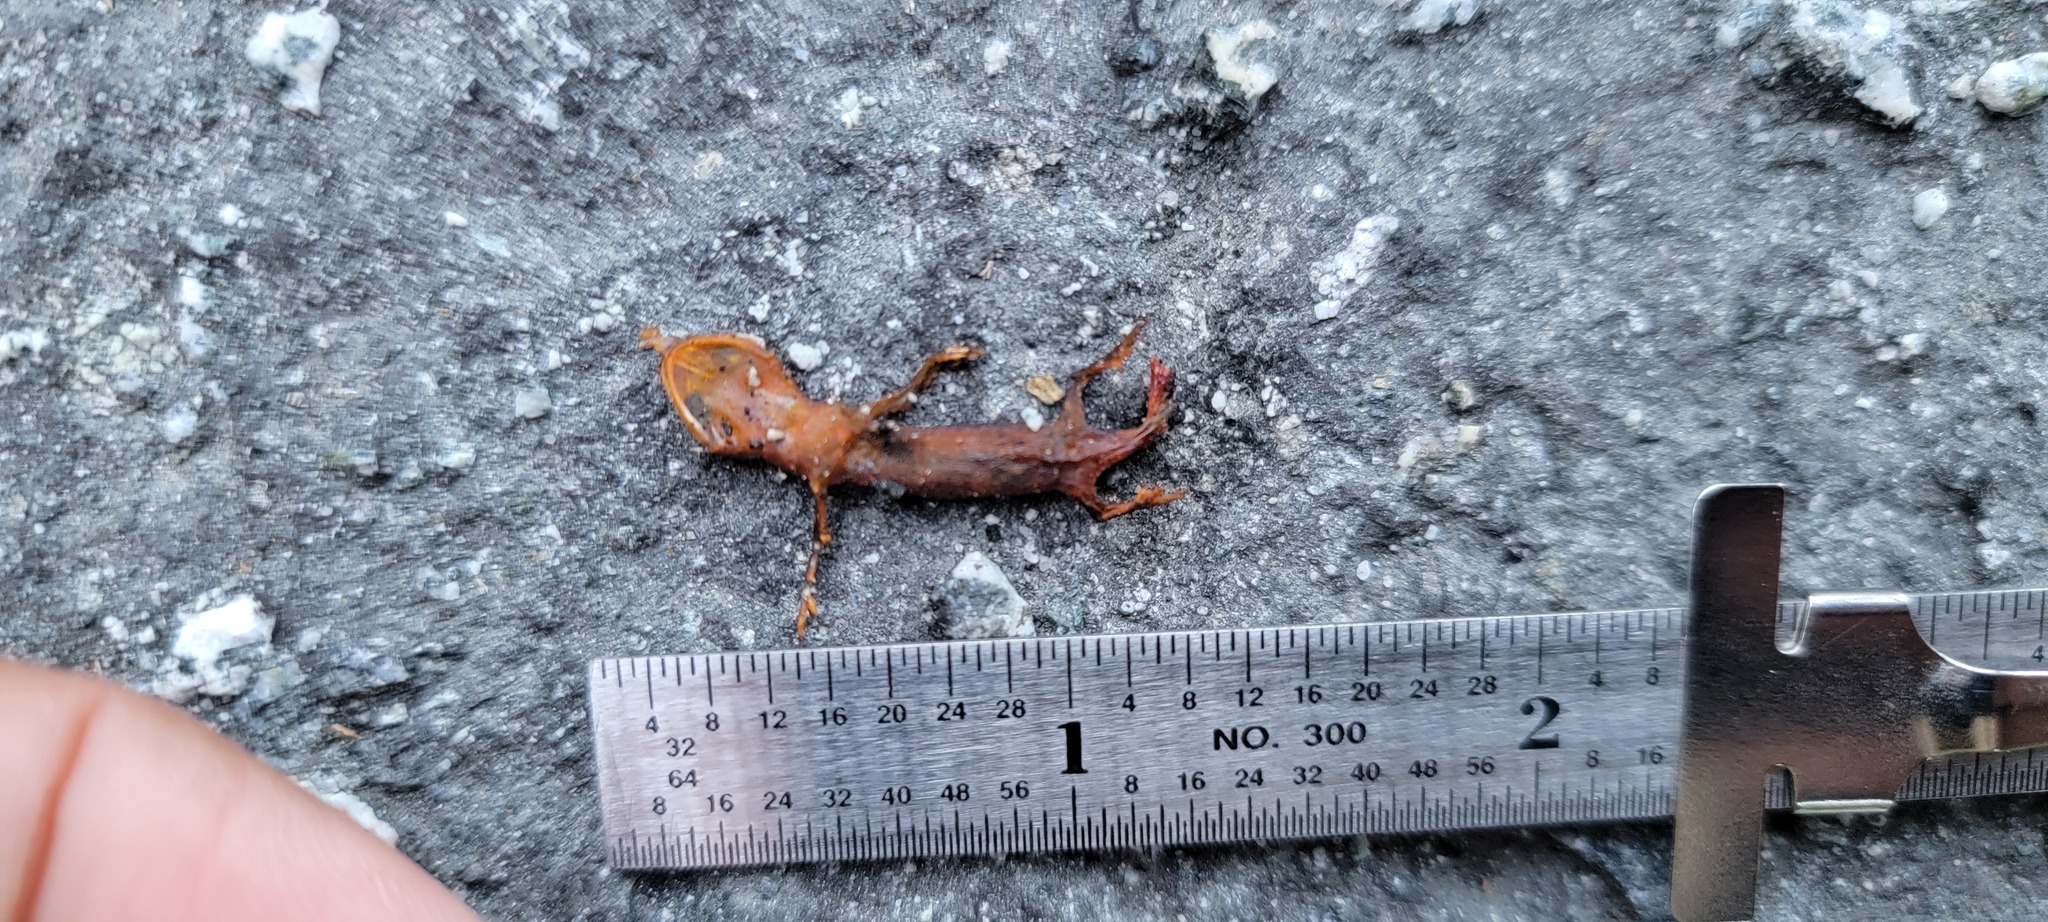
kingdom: Animalia
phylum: Chordata
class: Amphibia
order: Caudata
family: Salamandridae
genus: Taricha
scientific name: Taricha
